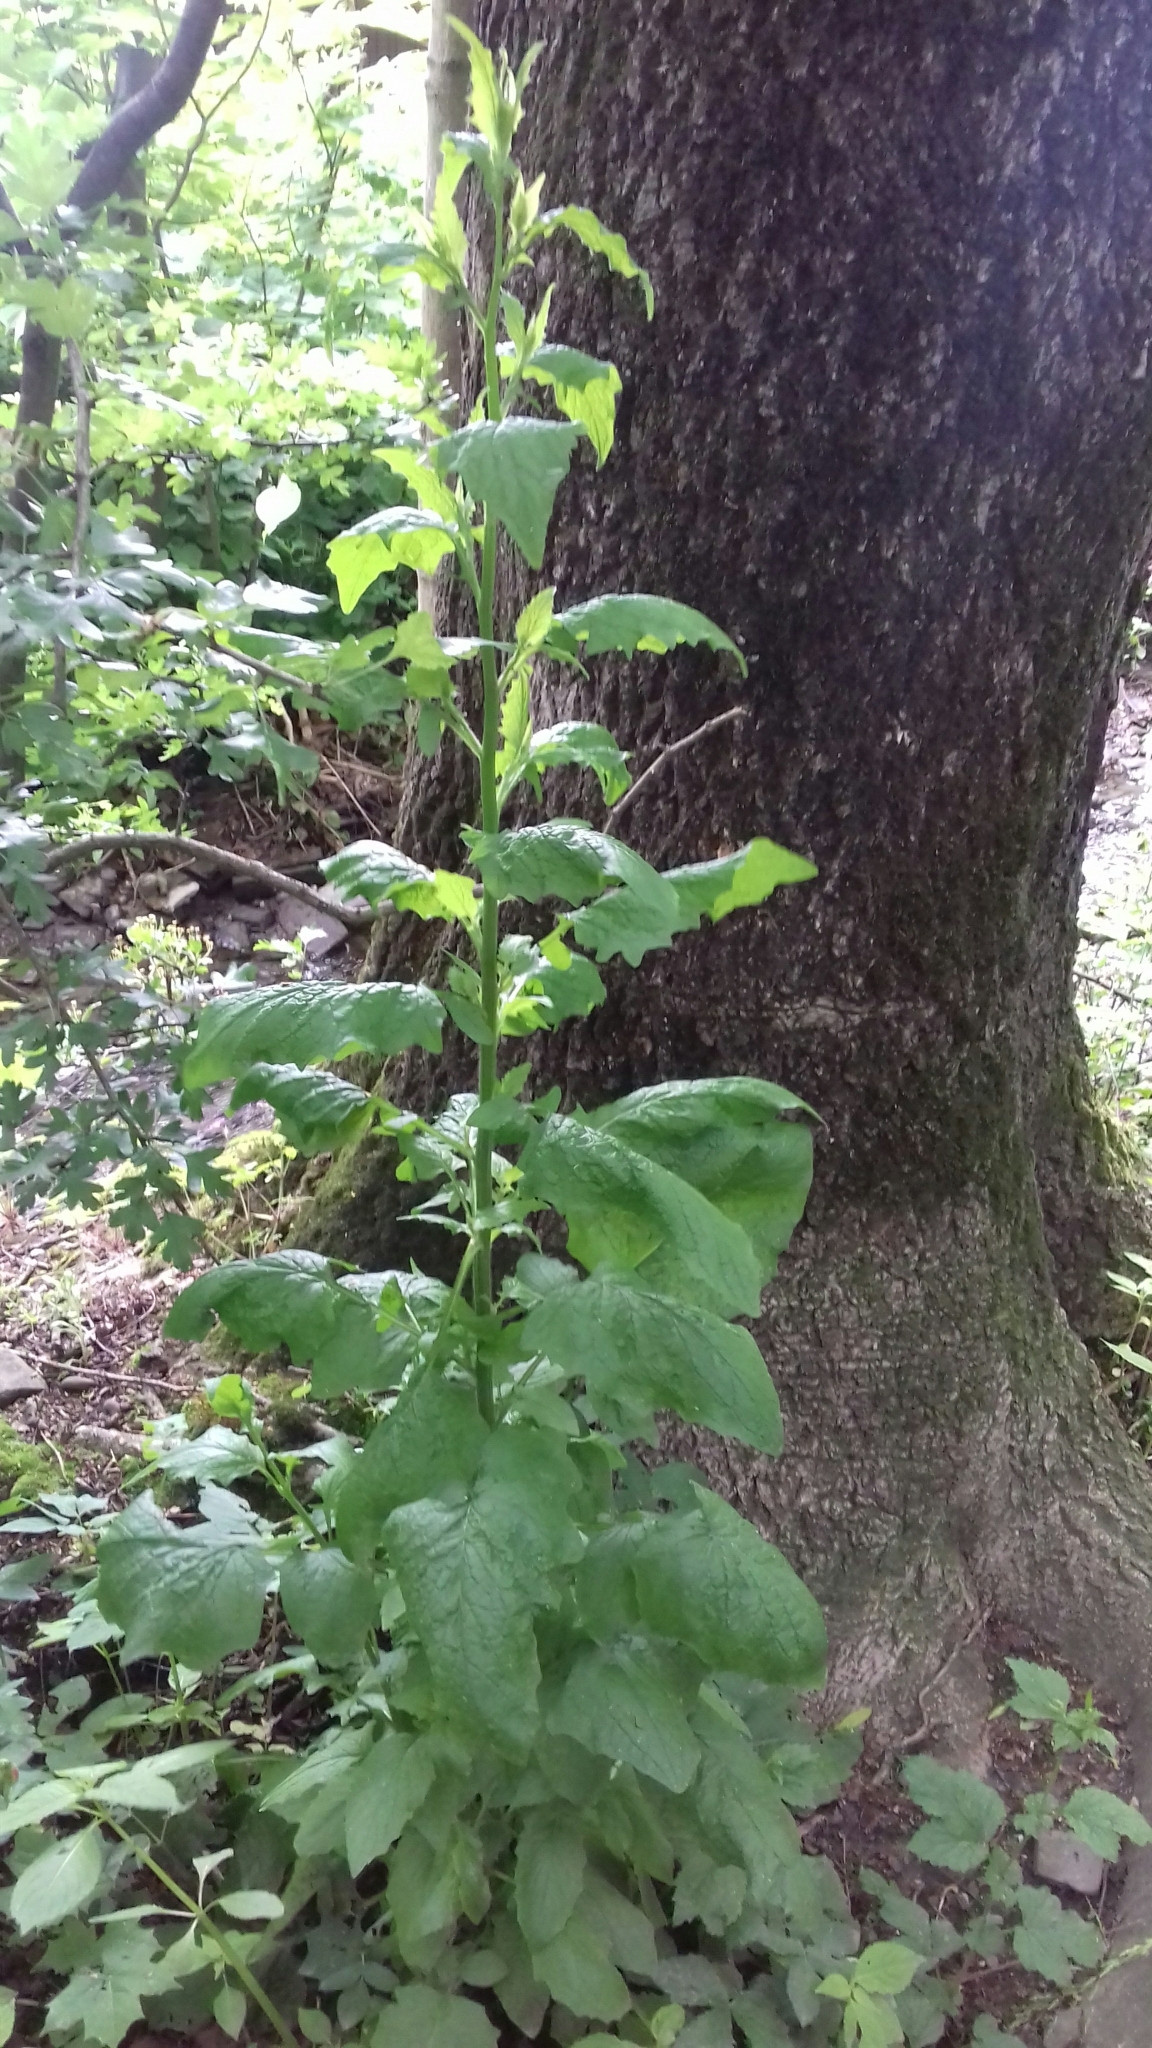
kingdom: Plantae
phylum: Tracheophyta
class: Magnoliopsida
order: Asterales
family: Asteraceae
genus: Lapsana
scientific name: Lapsana communis
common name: Nipplewort
